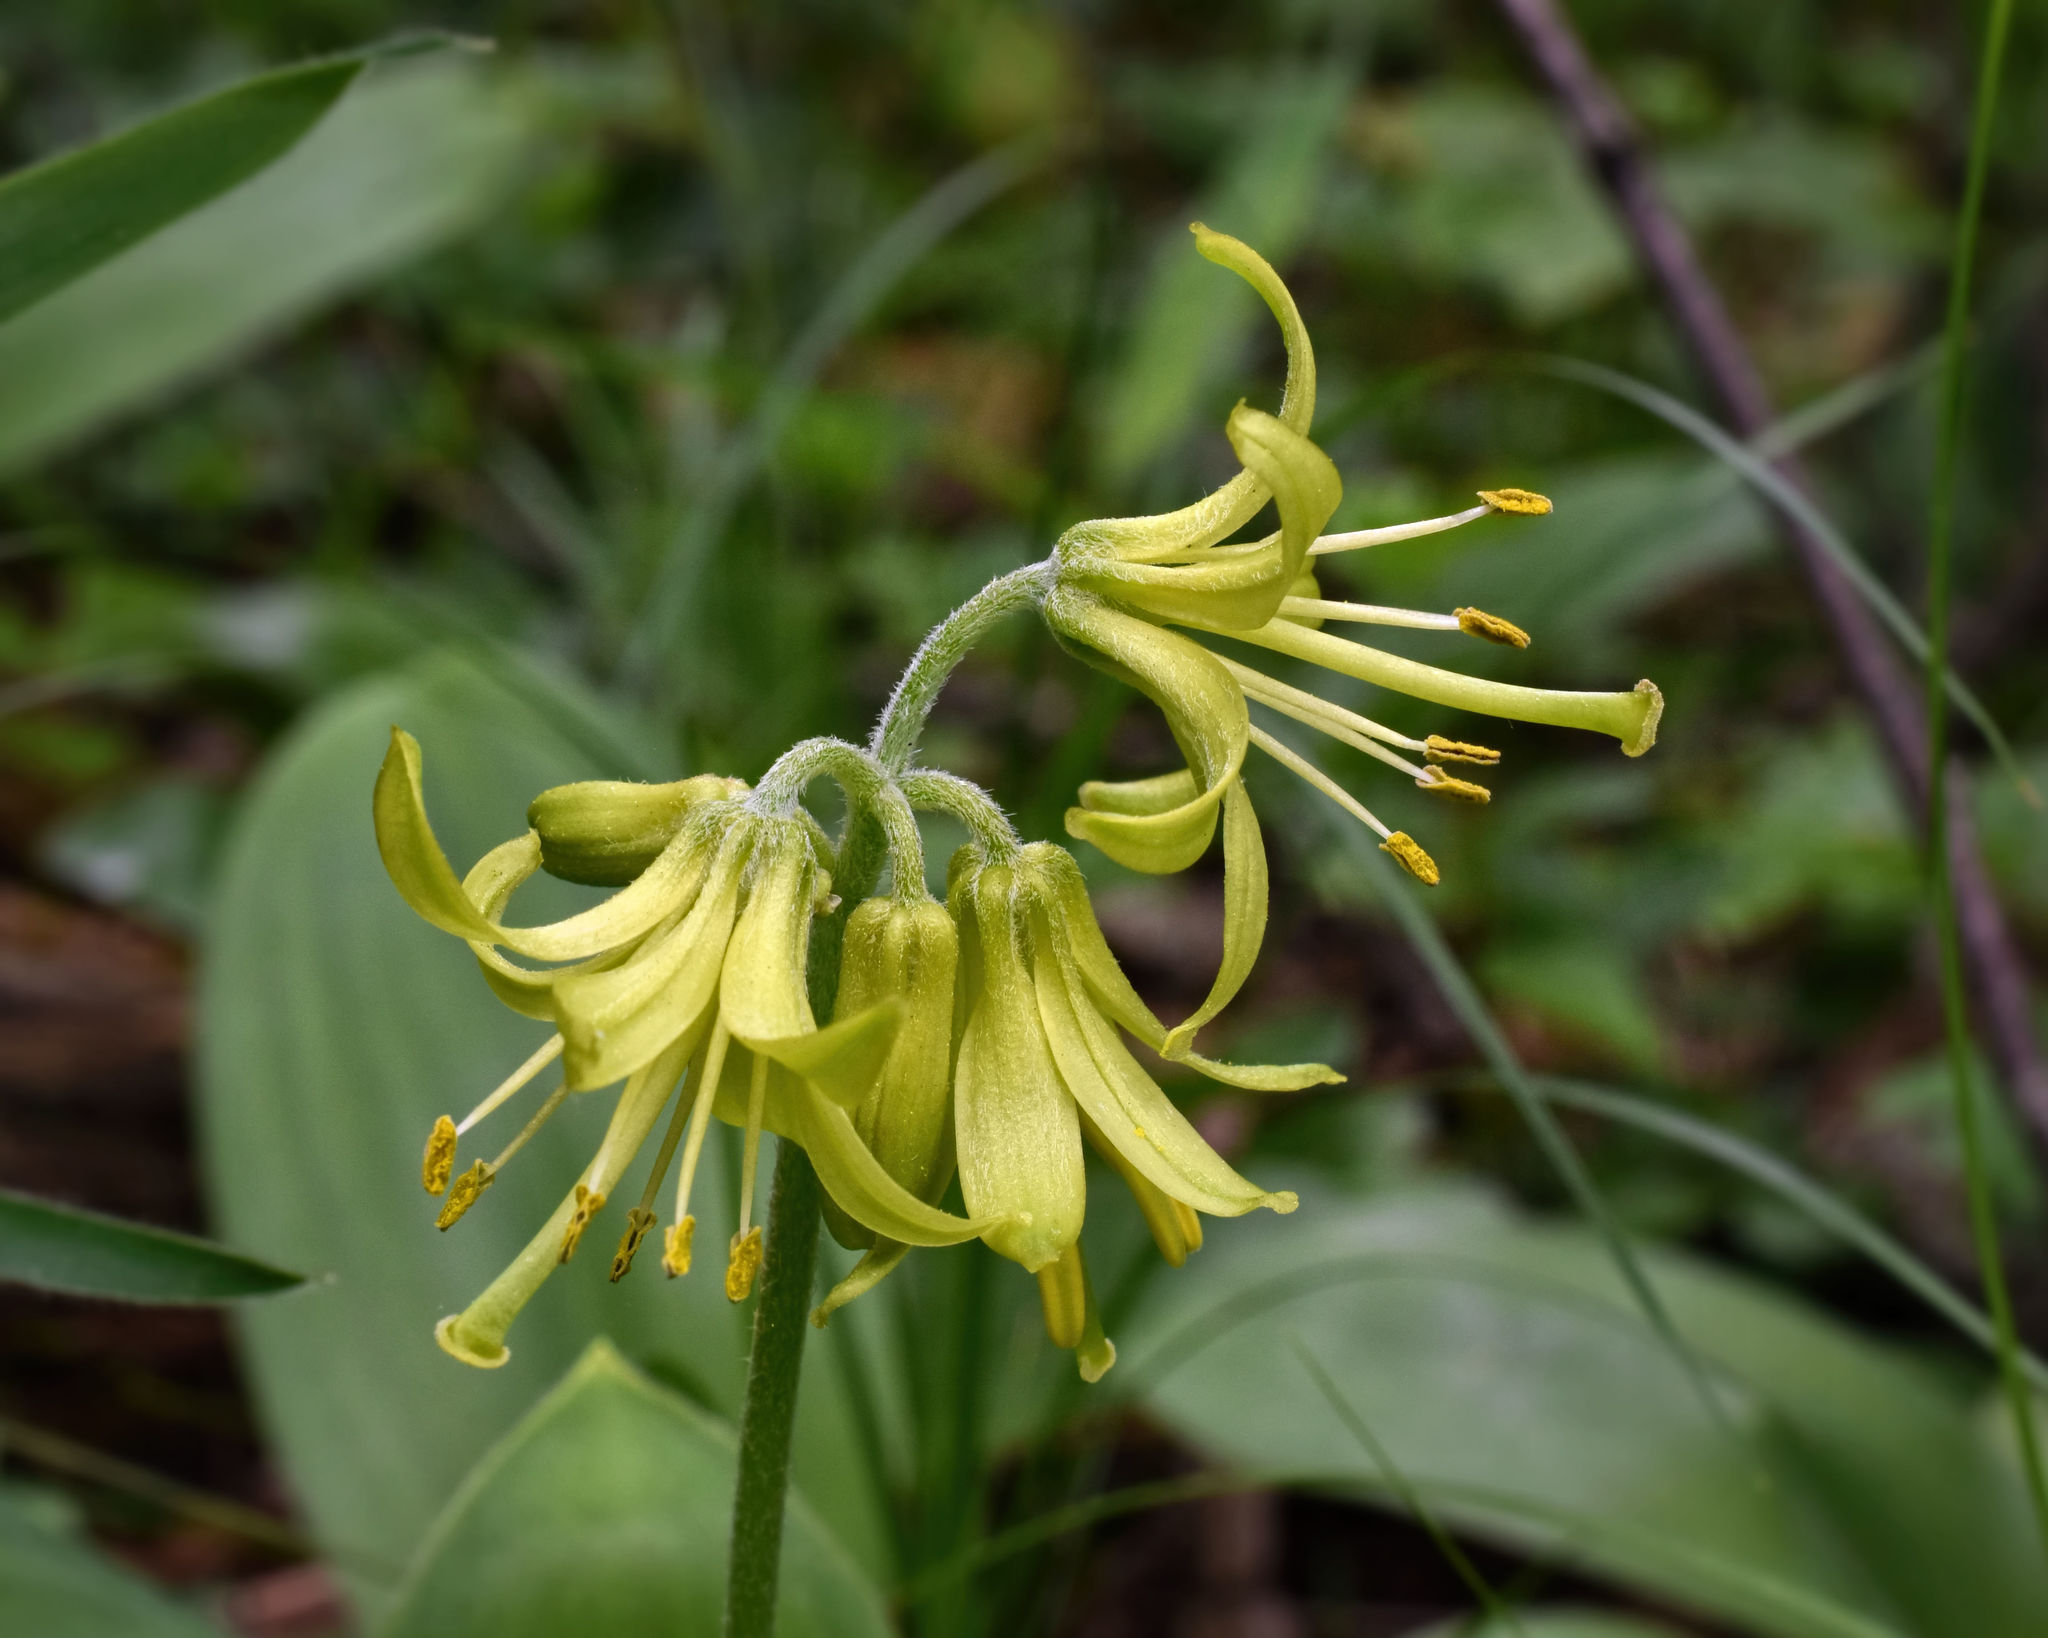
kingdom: Plantae
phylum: Tracheophyta
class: Liliopsida
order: Liliales
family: Liliaceae
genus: Clintonia
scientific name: Clintonia borealis
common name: Yellow clintonia
